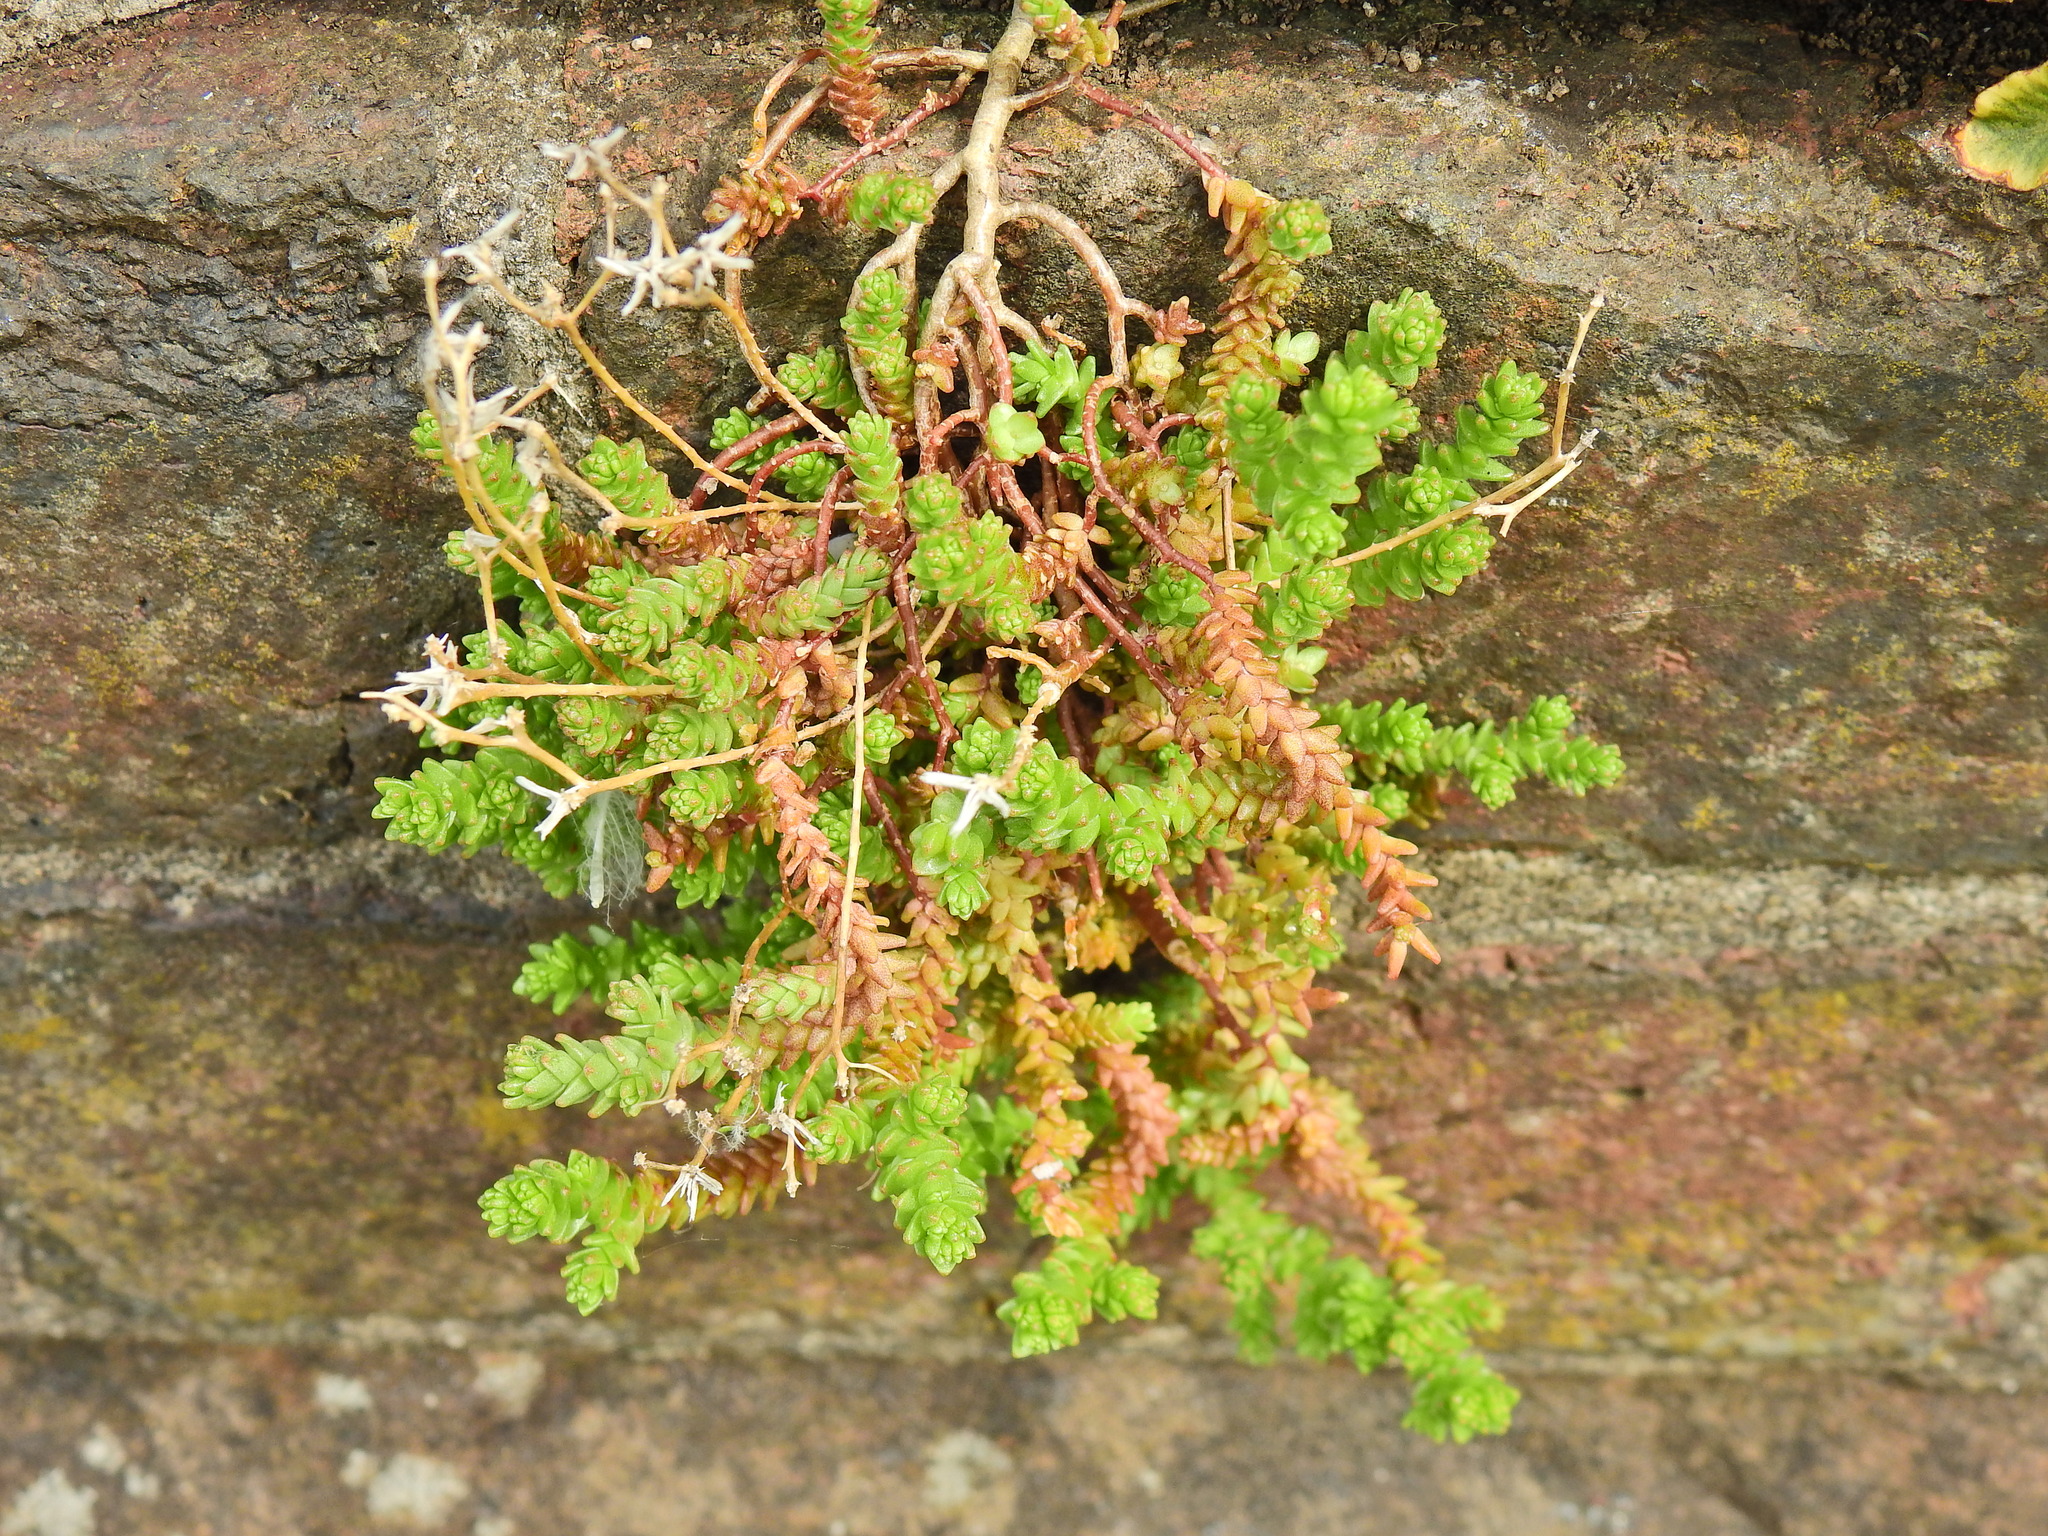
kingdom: Plantae
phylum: Tracheophyta
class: Magnoliopsida
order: Saxifragales
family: Crassulaceae
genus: Sedum
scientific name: Sedum acre
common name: Biting stonecrop
